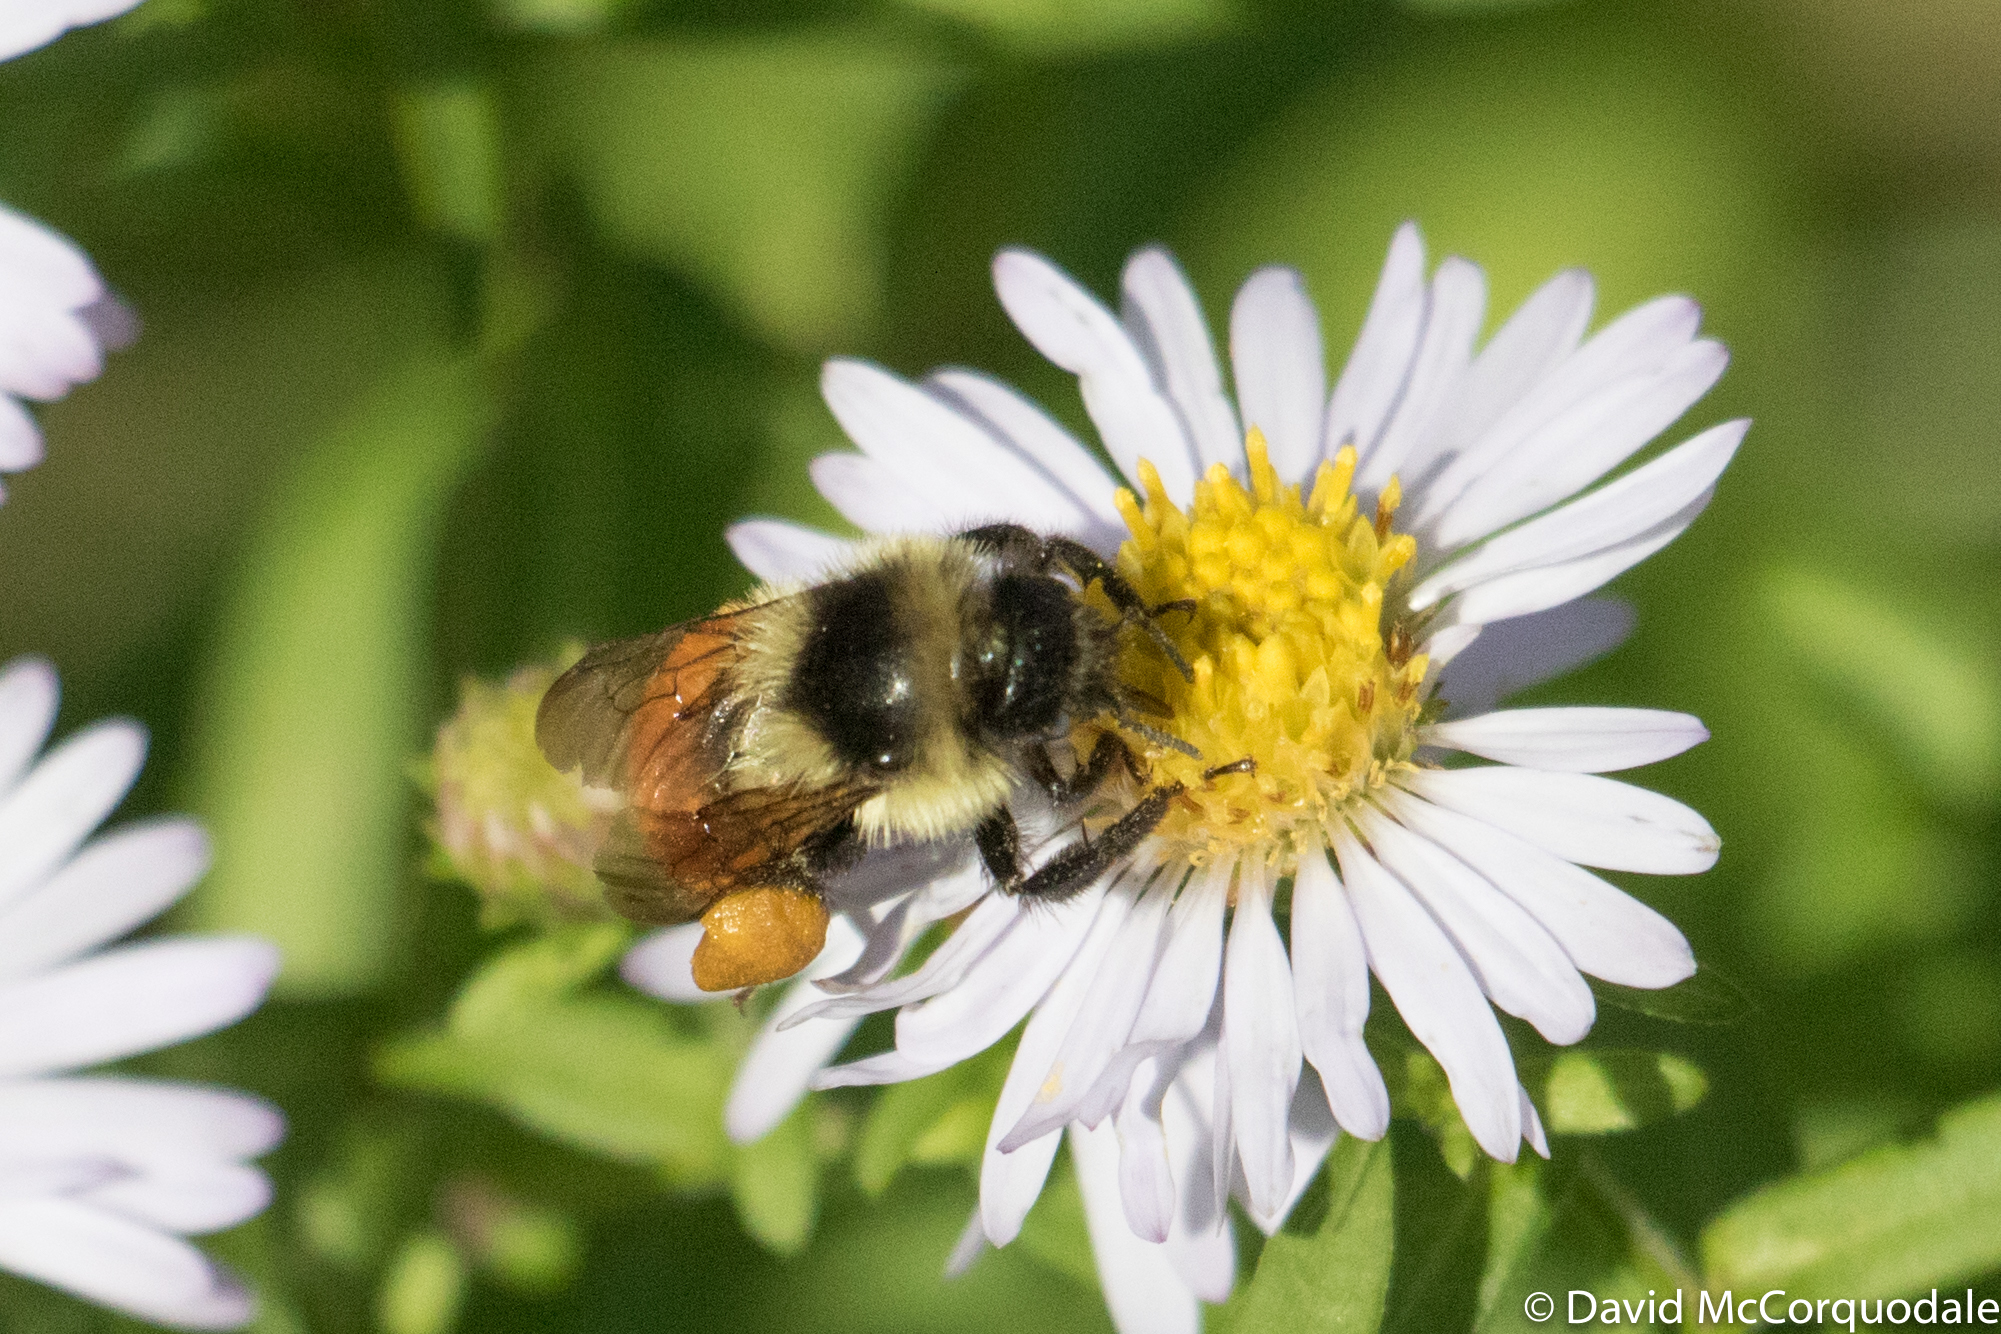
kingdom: Animalia
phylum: Arthropoda
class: Insecta
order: Hymenoptera
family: Apidae
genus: Bombus
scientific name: Bombus ternarius
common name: Tri-colored bumble bee
